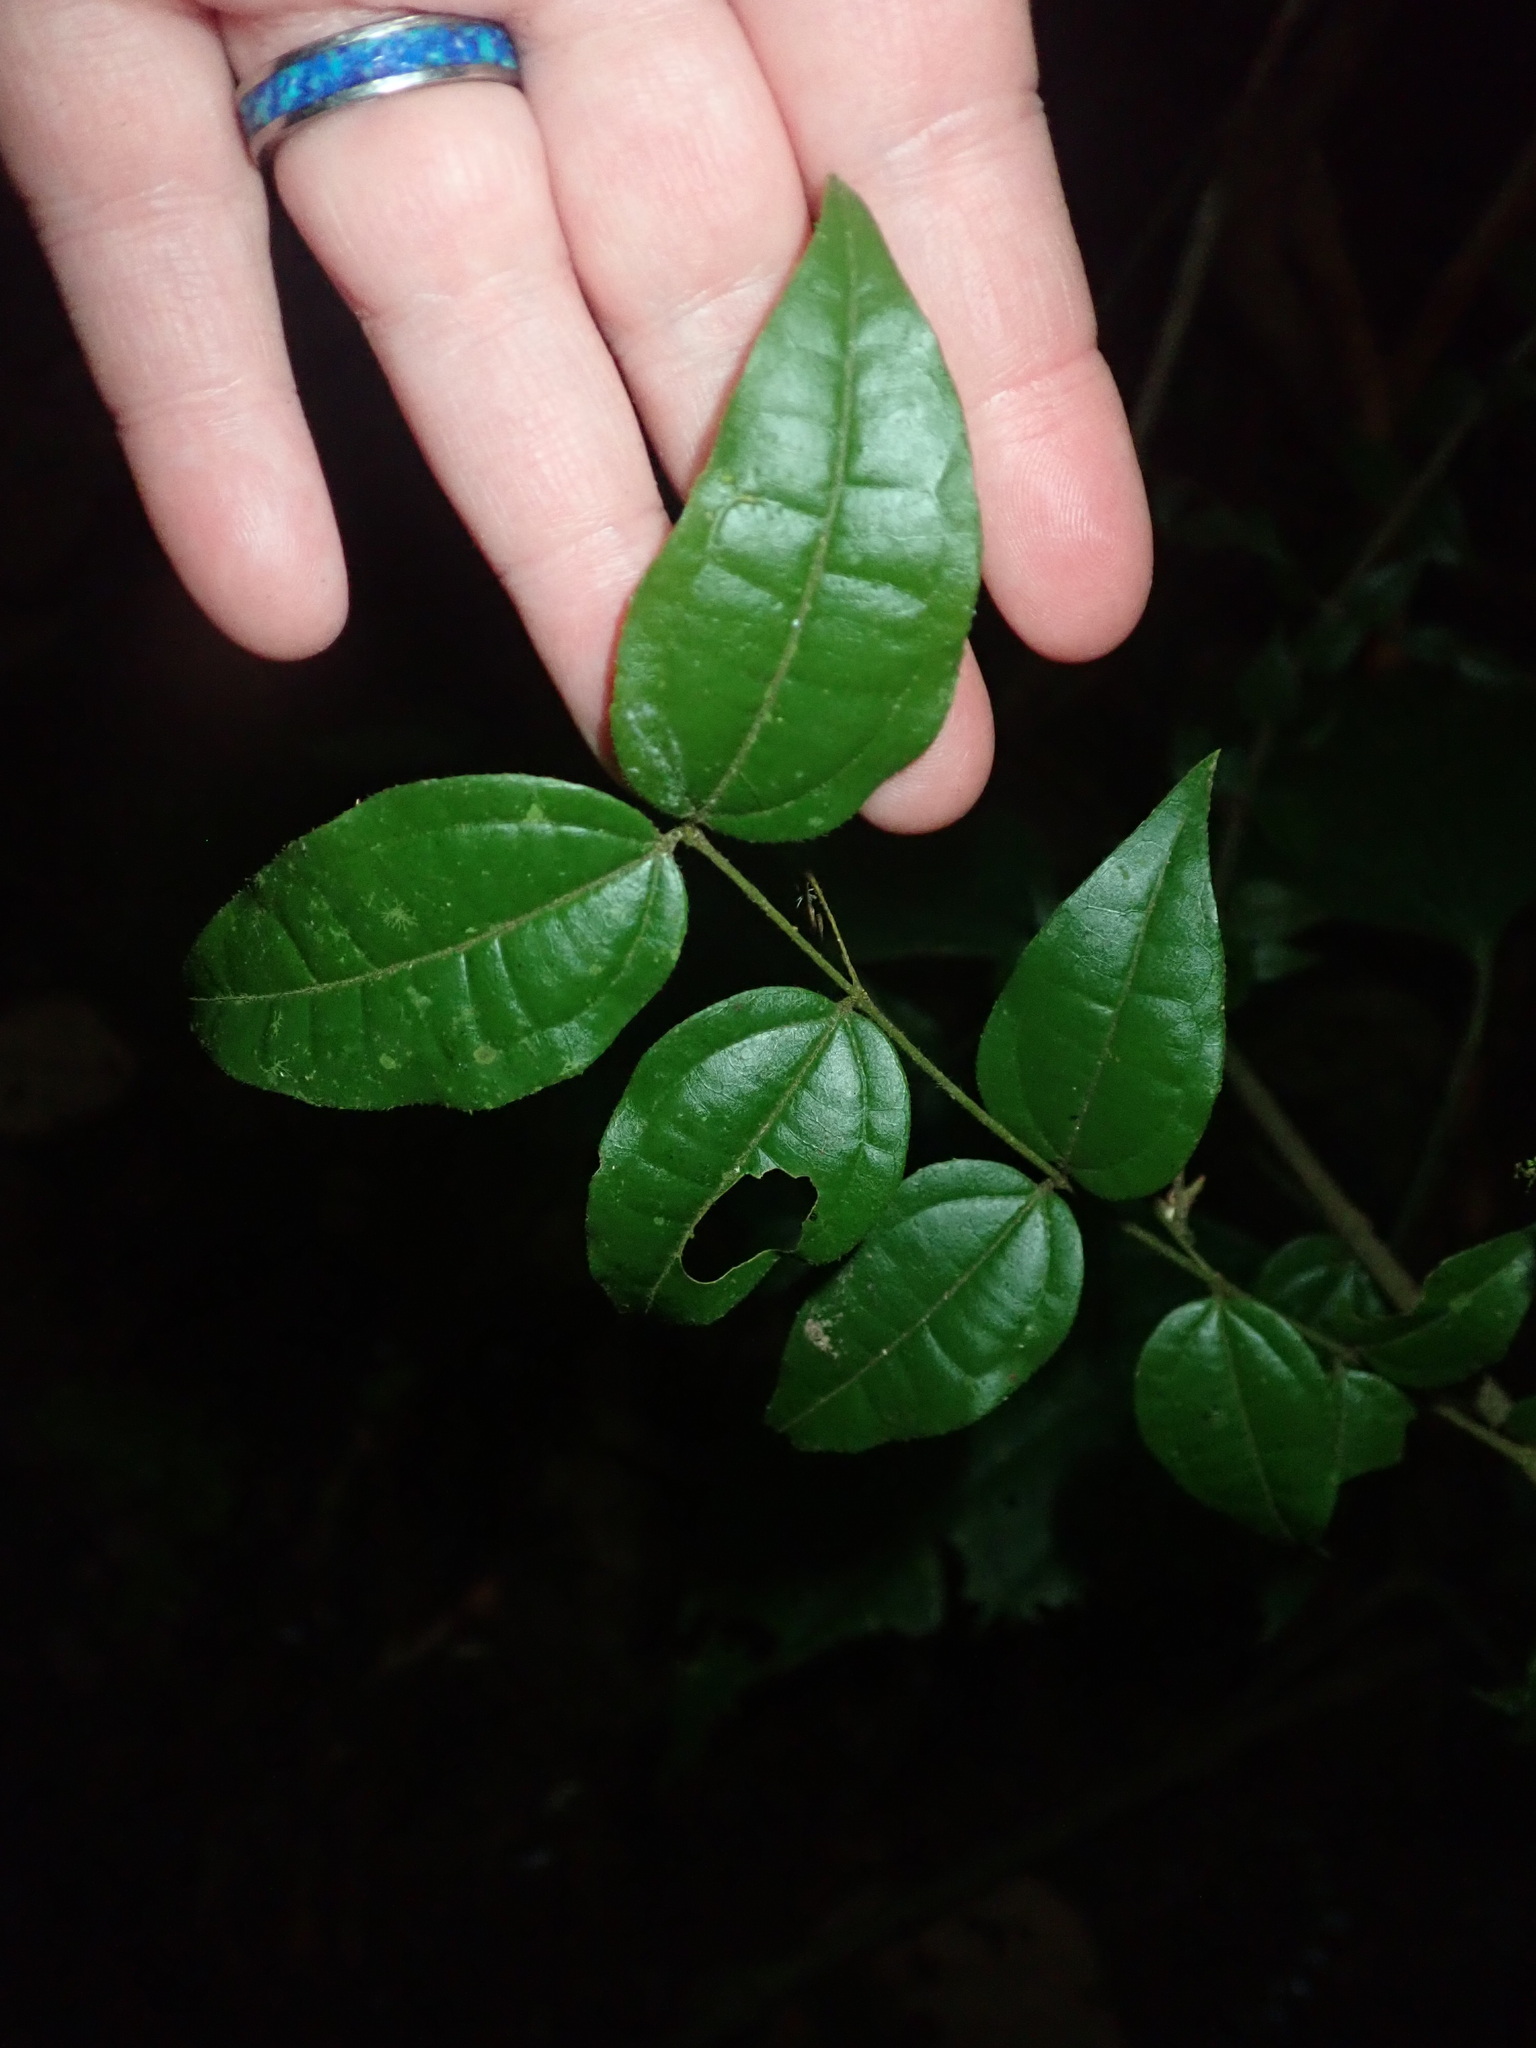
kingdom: Plantae
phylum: Tracheophyta
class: Magnoliopsida
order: Gentianales
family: Loganiaceae
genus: Strychnos
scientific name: Strychnos toxifera
